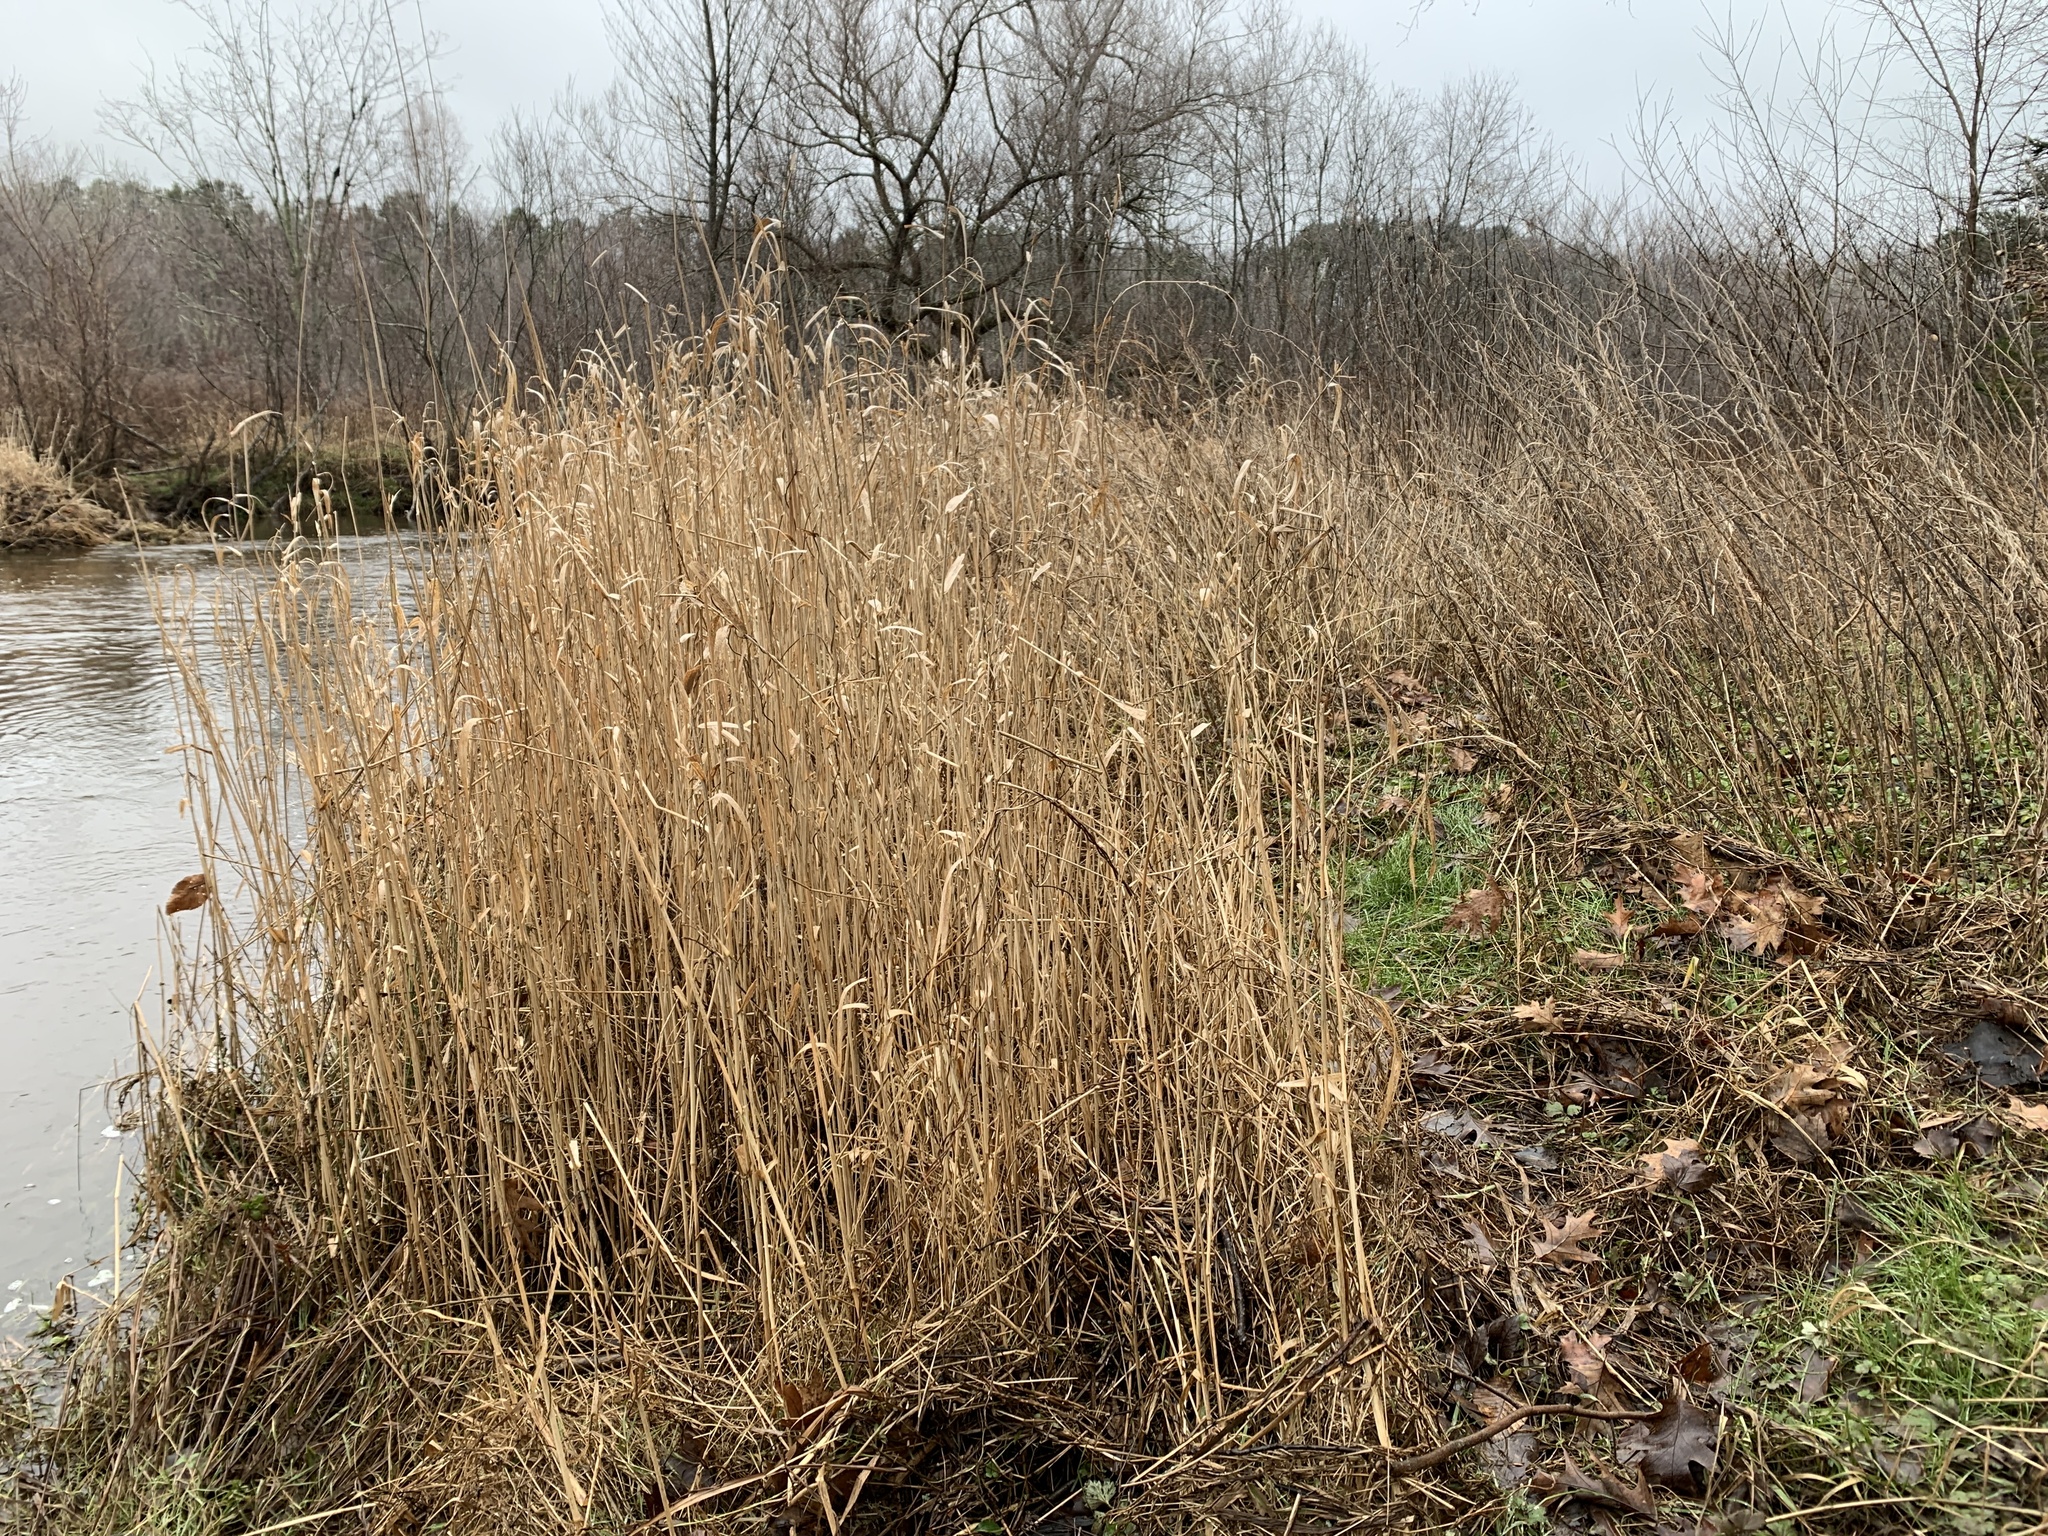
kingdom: Plantae
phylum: Tracheophyta
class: Liliopsida
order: Poales
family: Poaceae
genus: Phalaris
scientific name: Phalaris arundinacea
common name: Reed canary-grass
